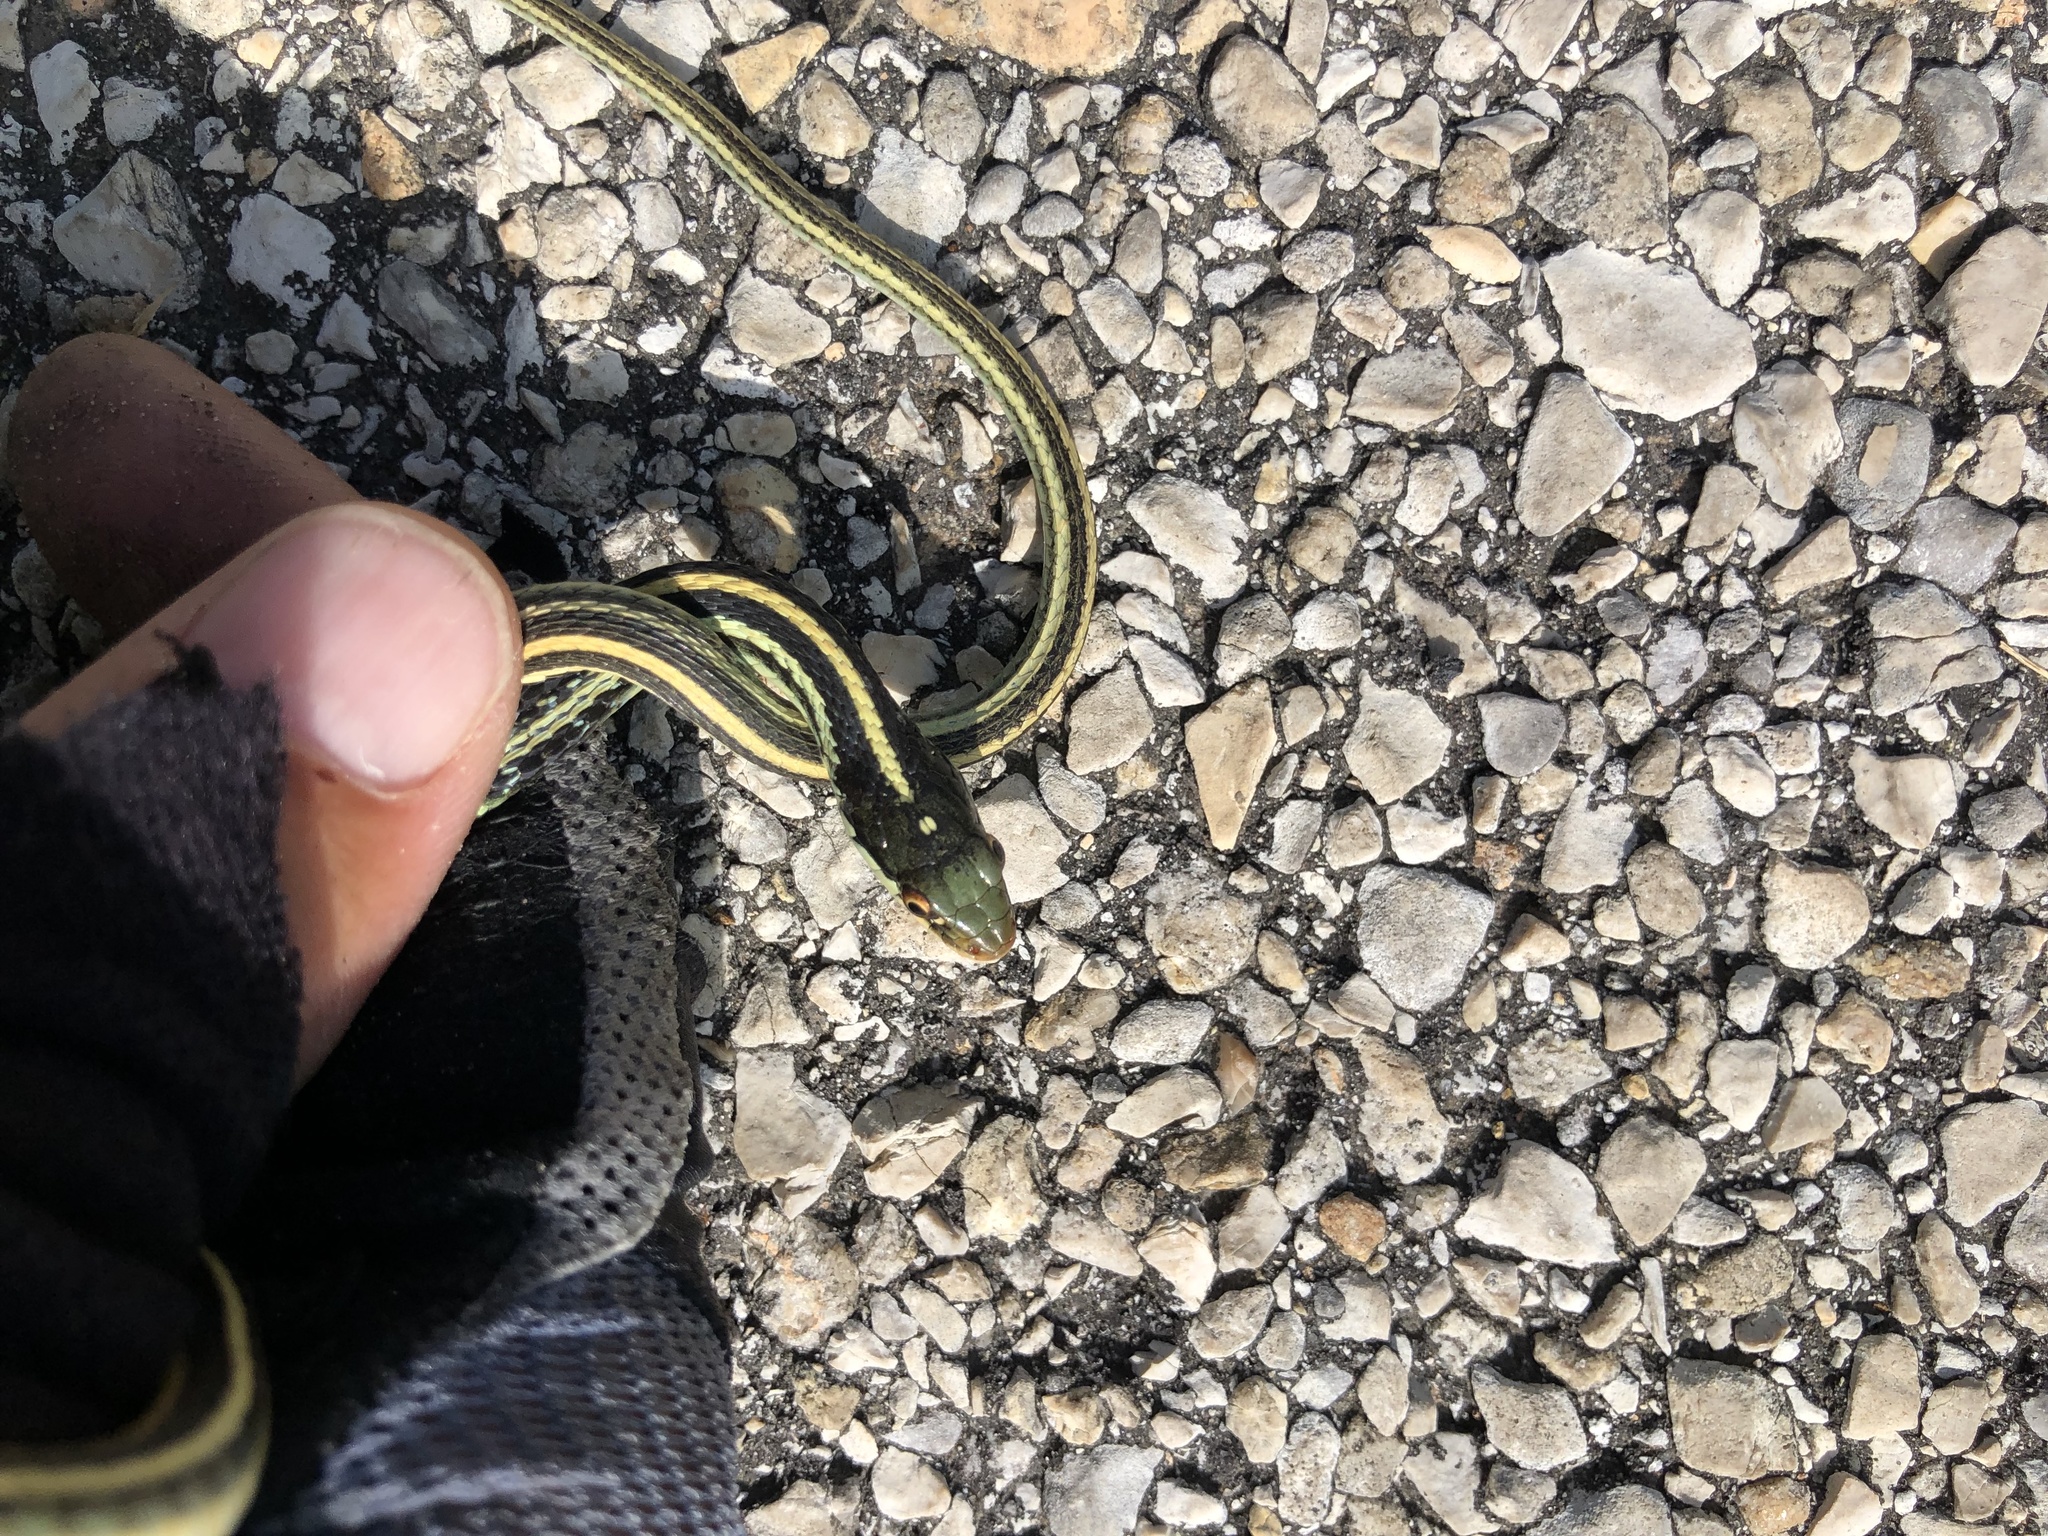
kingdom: Animalia
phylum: Chordata
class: Squamata
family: Colubridae
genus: Thamnophis
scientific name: Thamnophis proximus
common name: Western ribbon snake
